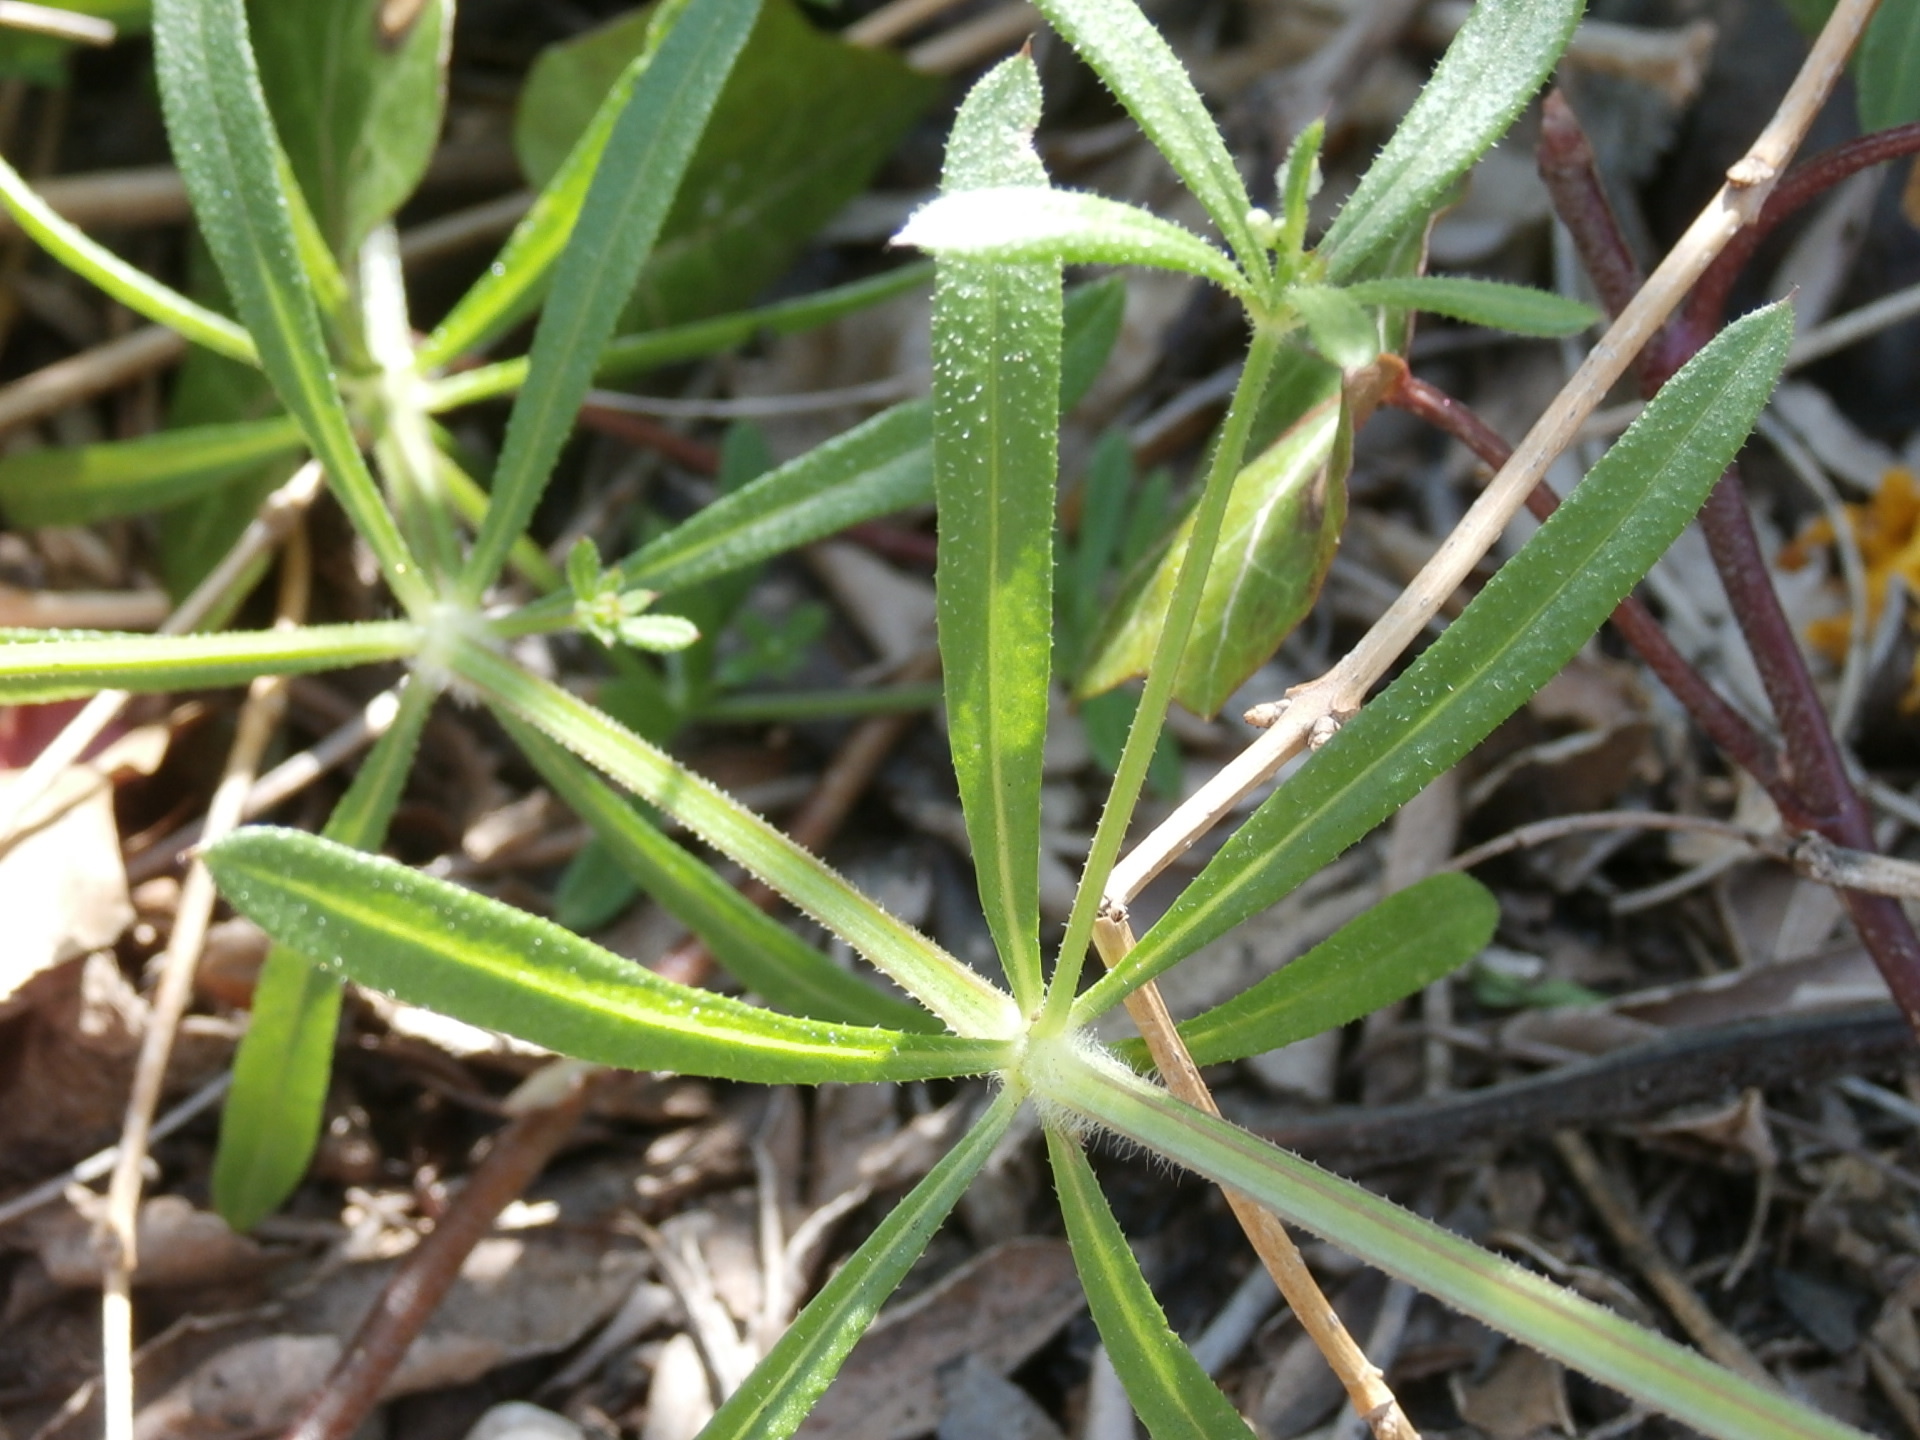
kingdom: Plantae
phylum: Tracheophyta
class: Magnoliopsida
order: Gentianales
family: Rubiaceae
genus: Galium
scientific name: Galium aparine
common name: Cleavers
